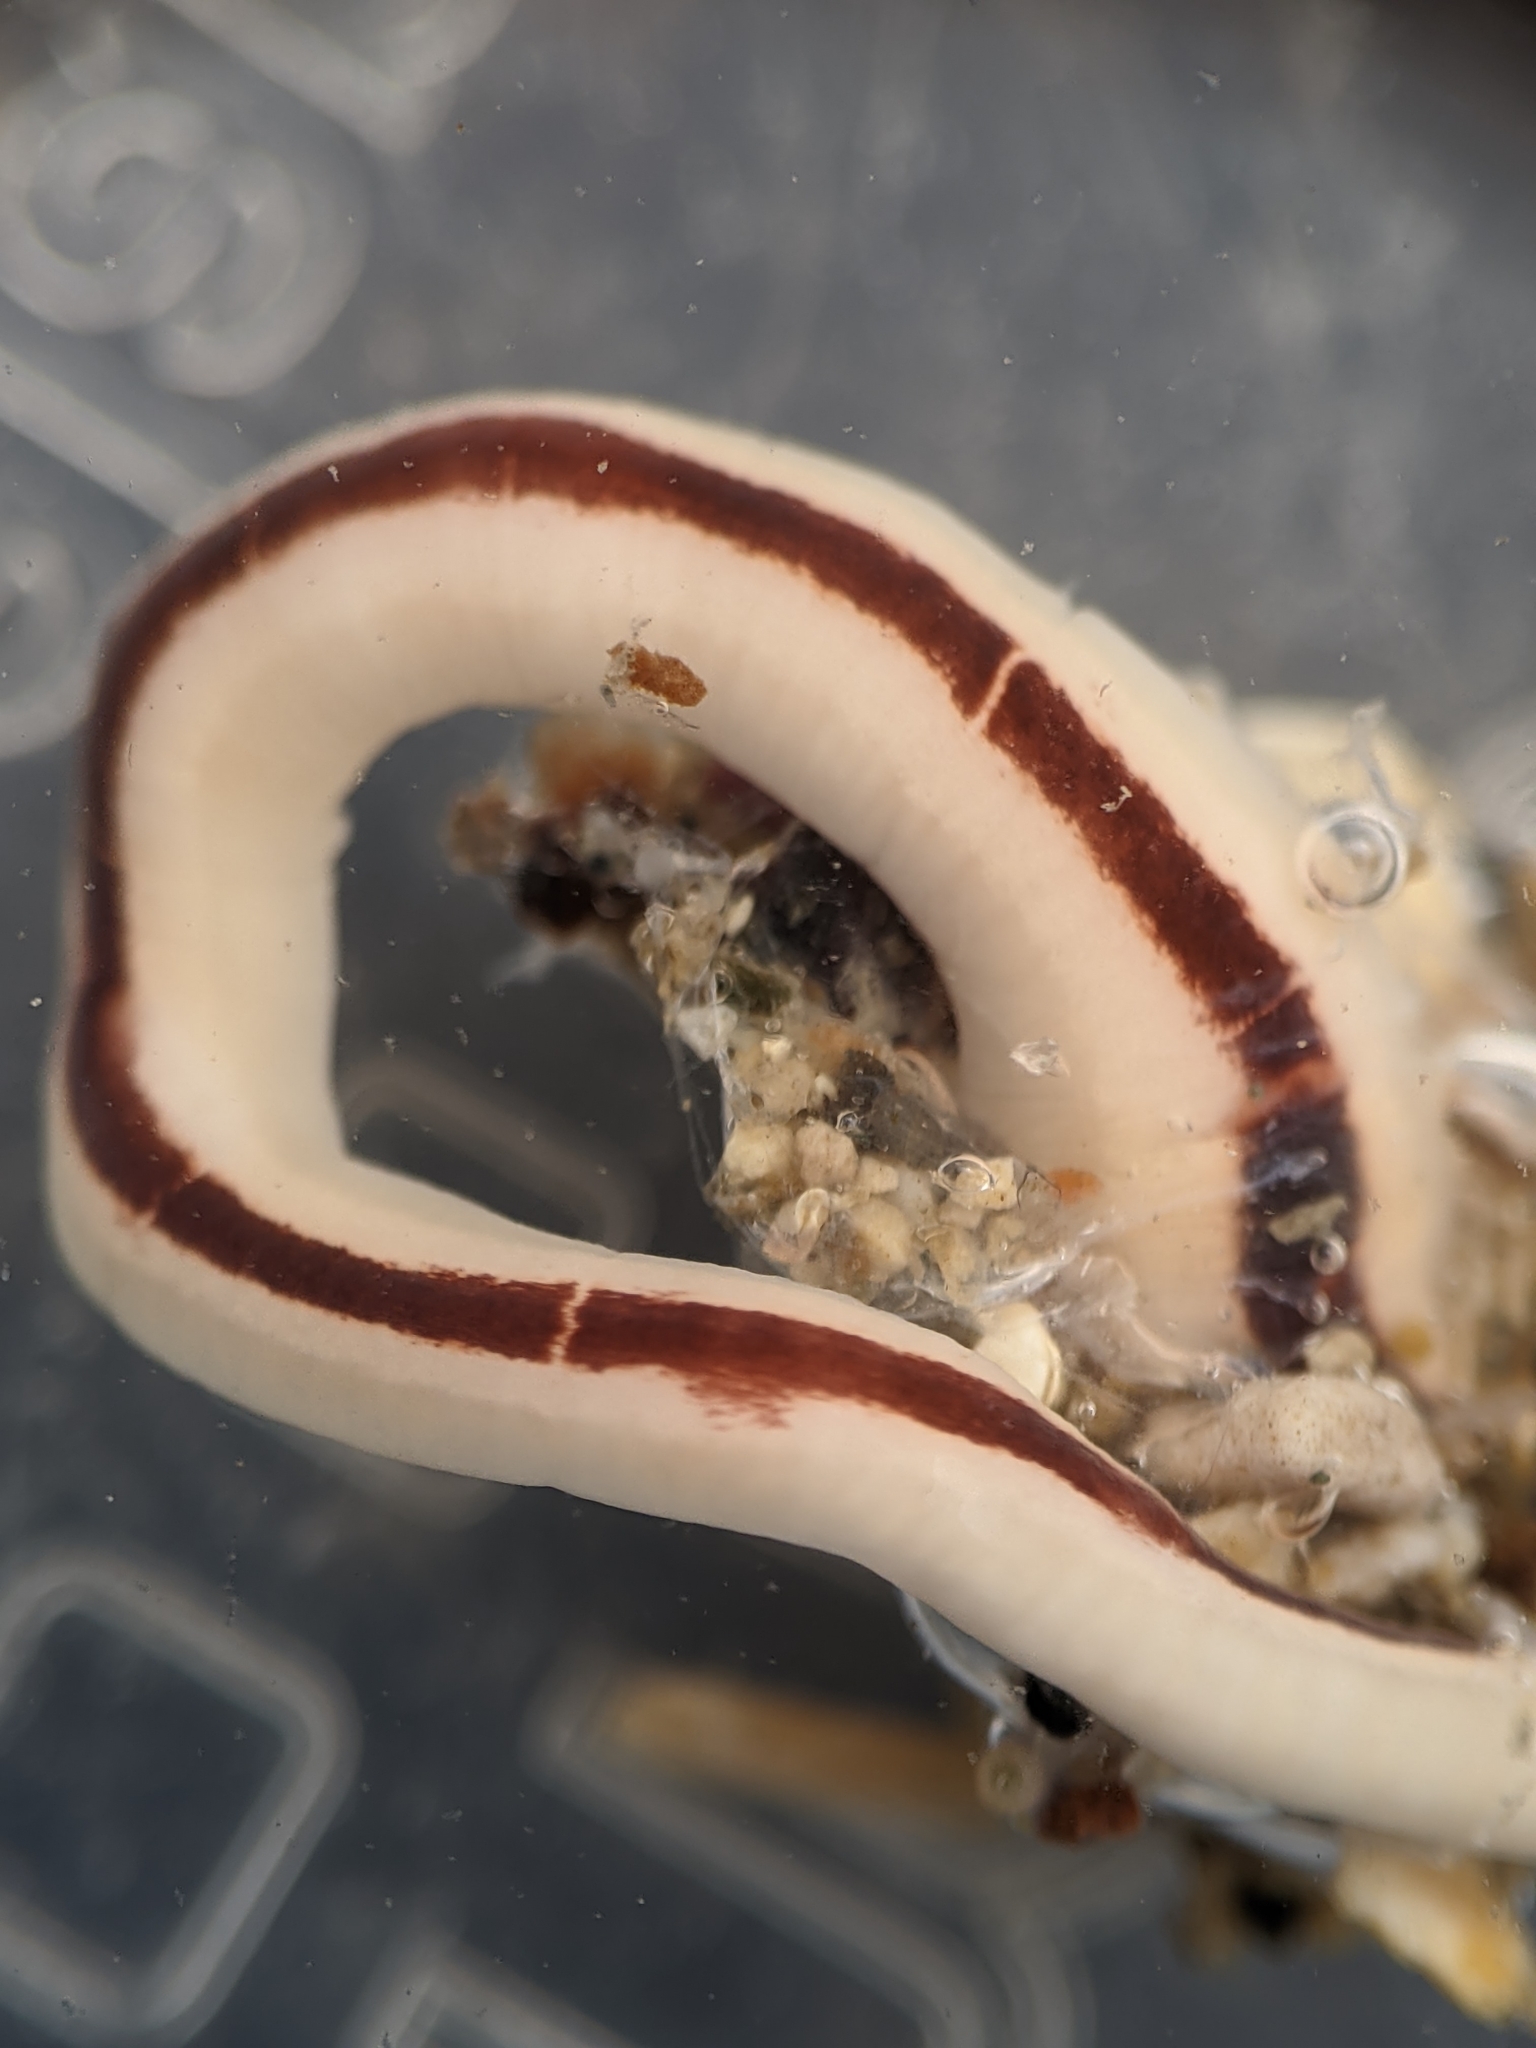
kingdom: Animalia
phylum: Nemertea
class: Pilidiophora
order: Heteronemertea
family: Lineidae
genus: Micrura
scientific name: Micrura verrilli
